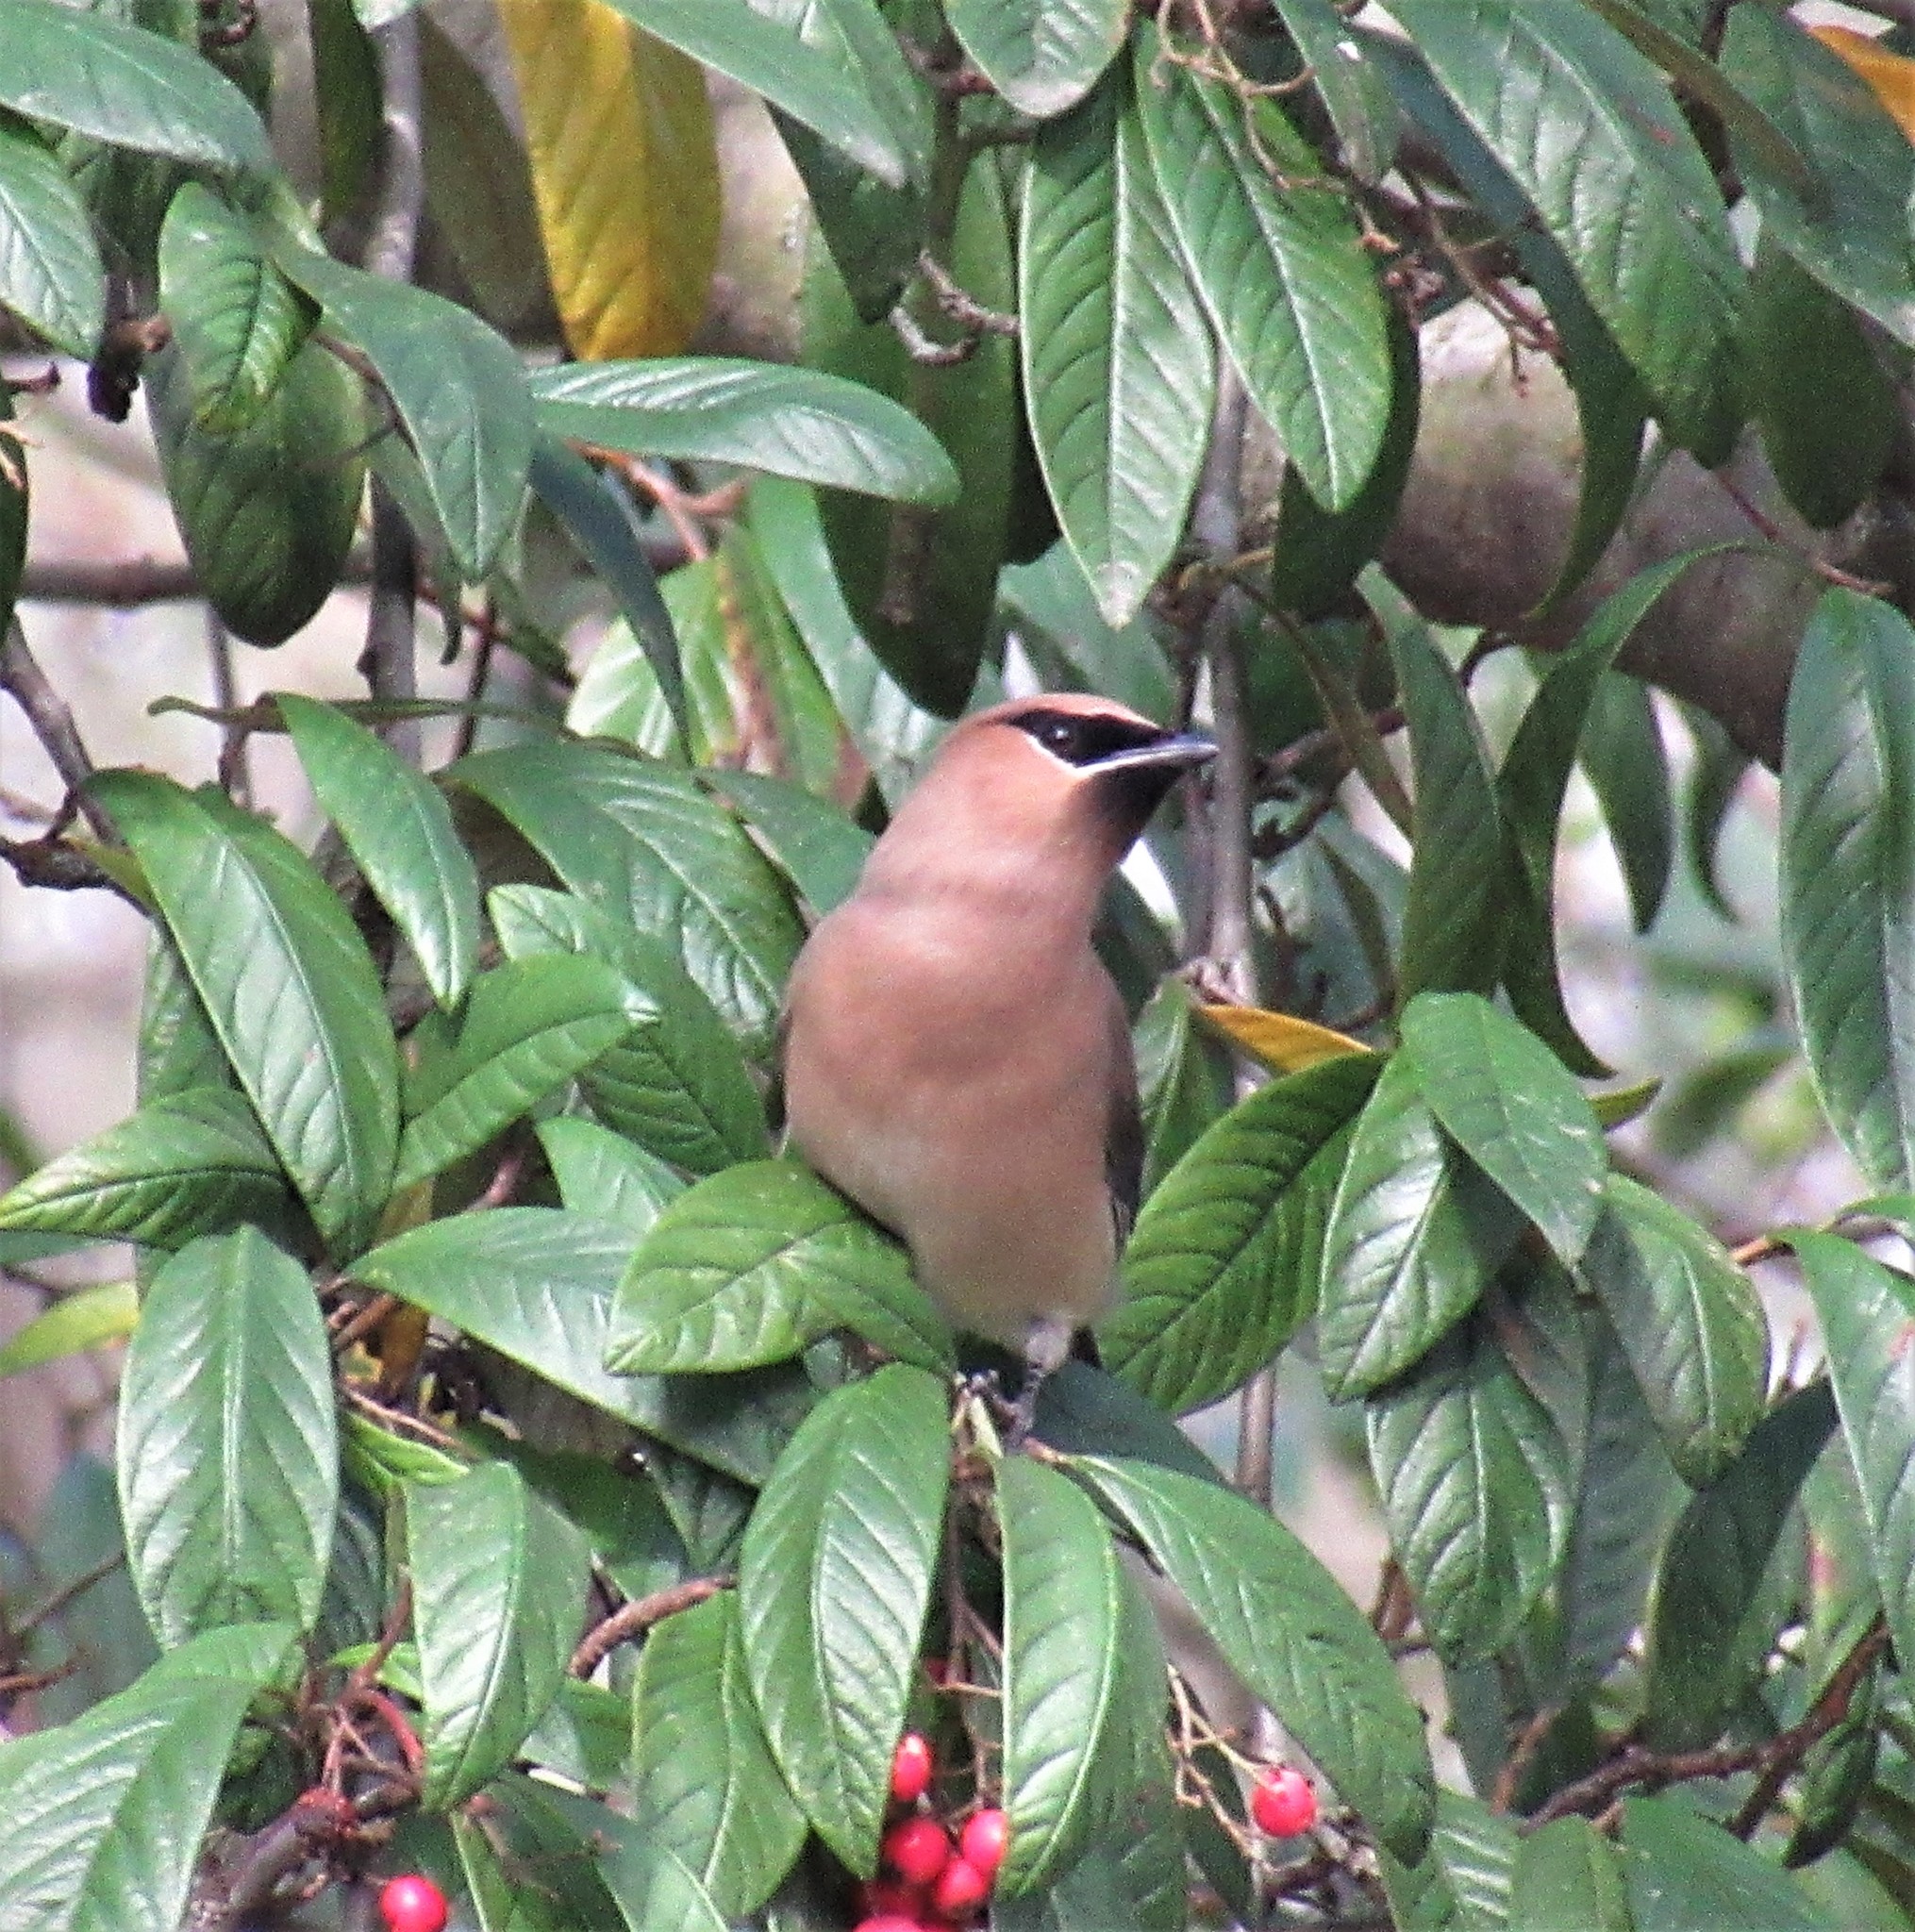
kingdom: Animalia
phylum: Chordata
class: Aves
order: Passeriformes
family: Bombycillidae
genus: Bombycilla
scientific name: Bombycilla cedrorum
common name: Cedar waxwing
